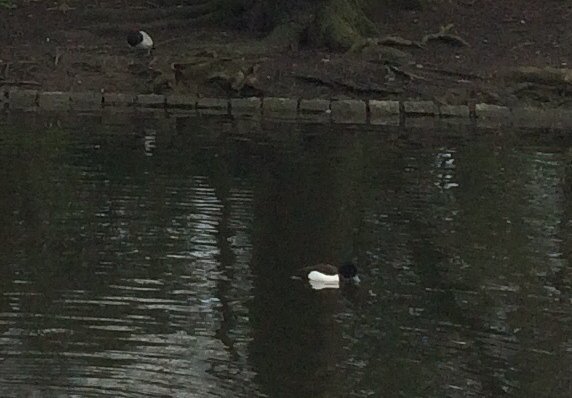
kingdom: Animalia
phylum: Chordata
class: Aves
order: Anseriformes
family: Anatidae
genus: Aythya
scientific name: Aythya fuligula
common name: Tufted duck
